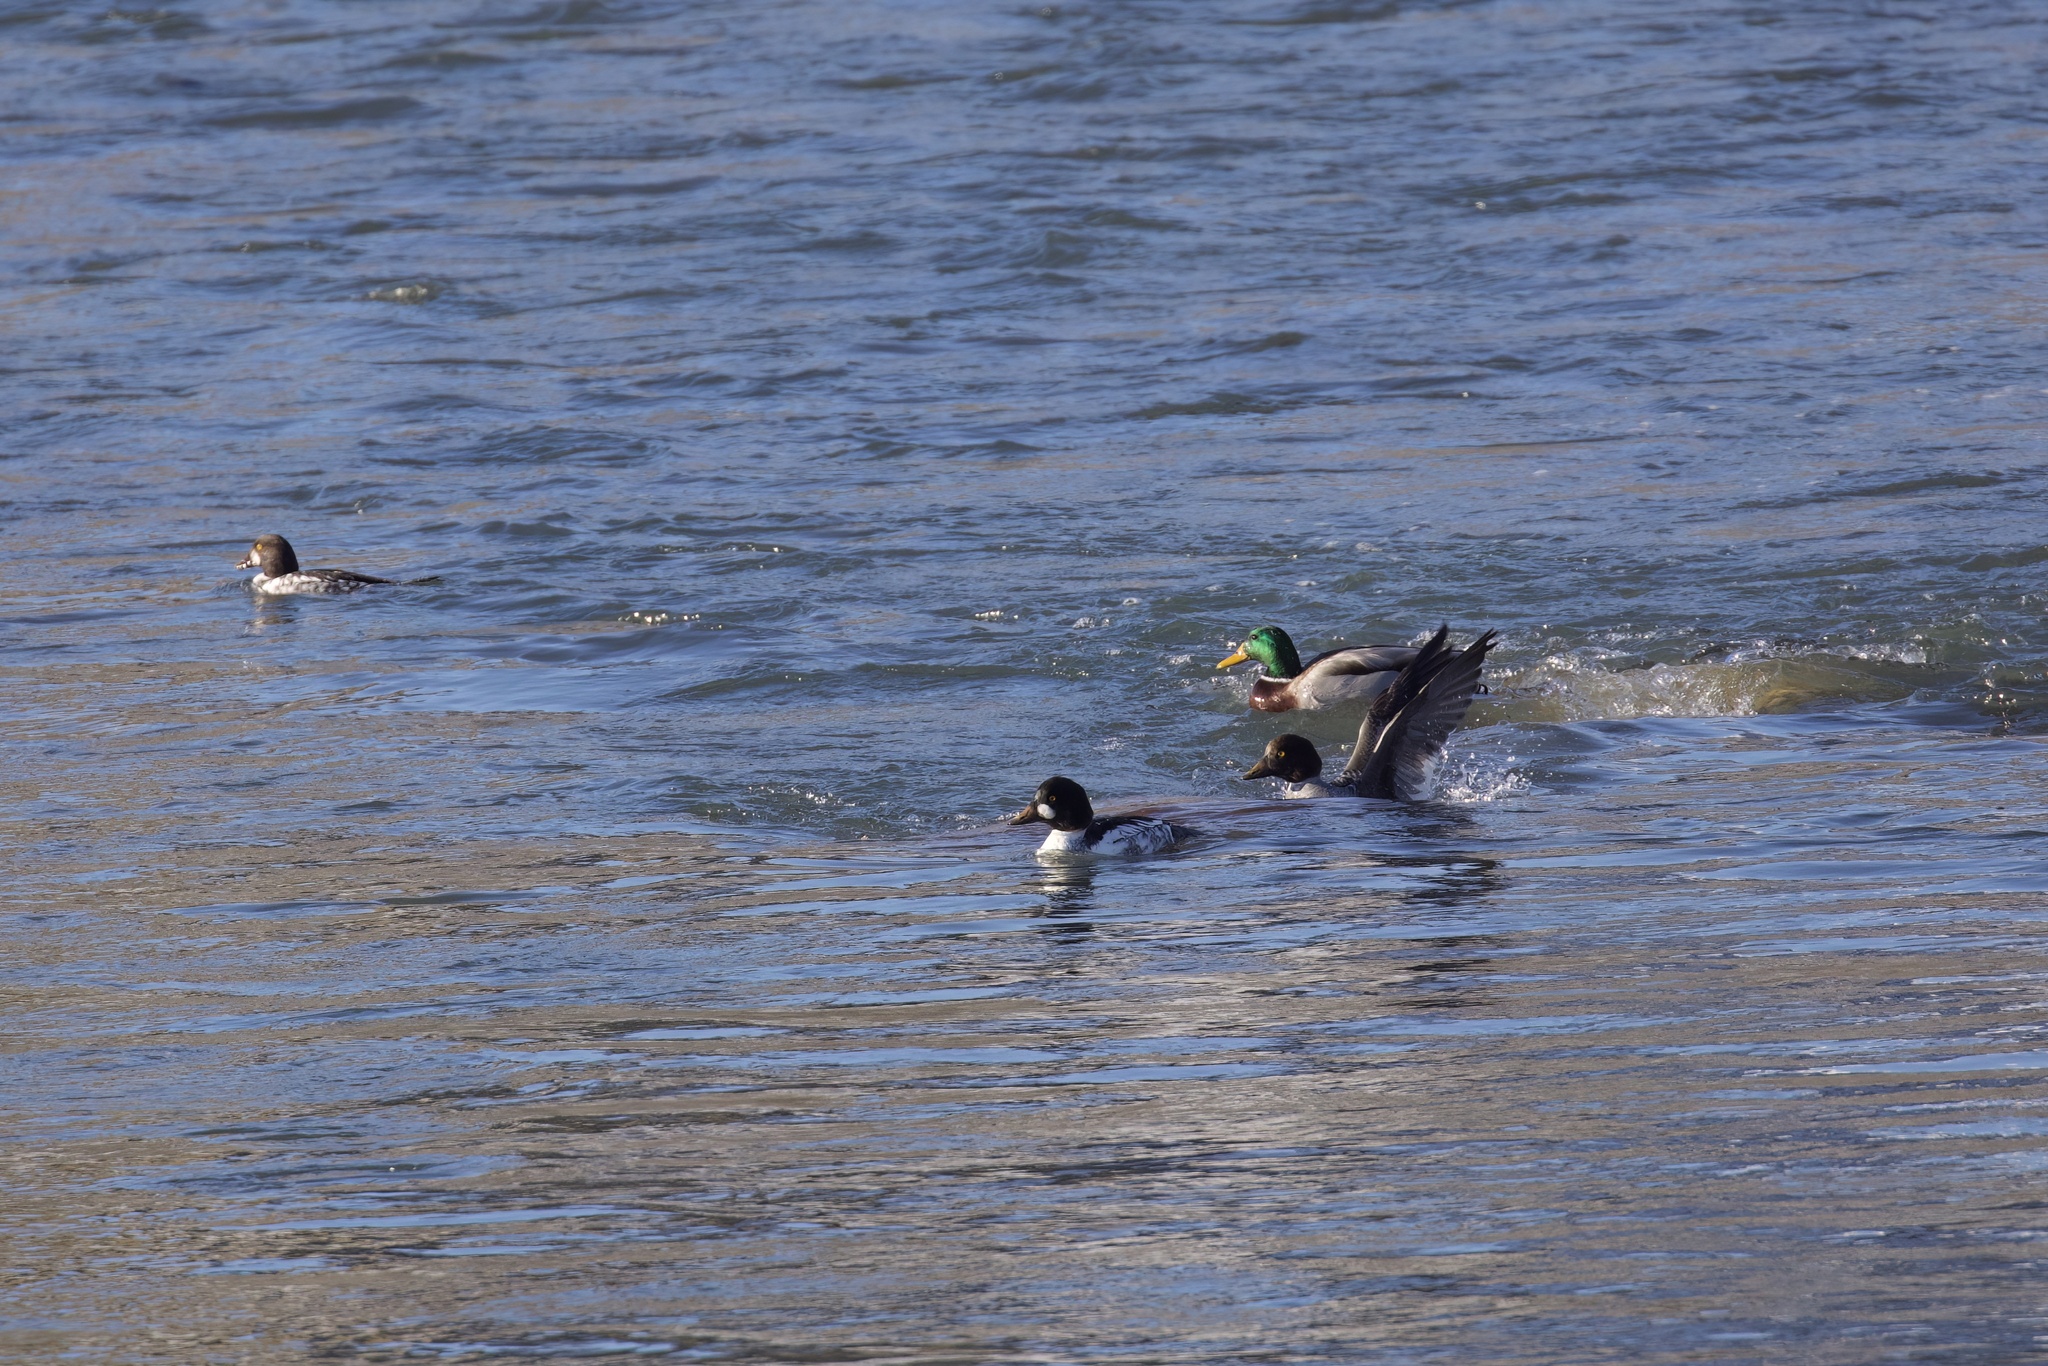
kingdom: Animalia
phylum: Chordata
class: Aves
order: Anseriformes
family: Anatidae
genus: Bucephala
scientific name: Bucephala clangula
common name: Common goldeneye
